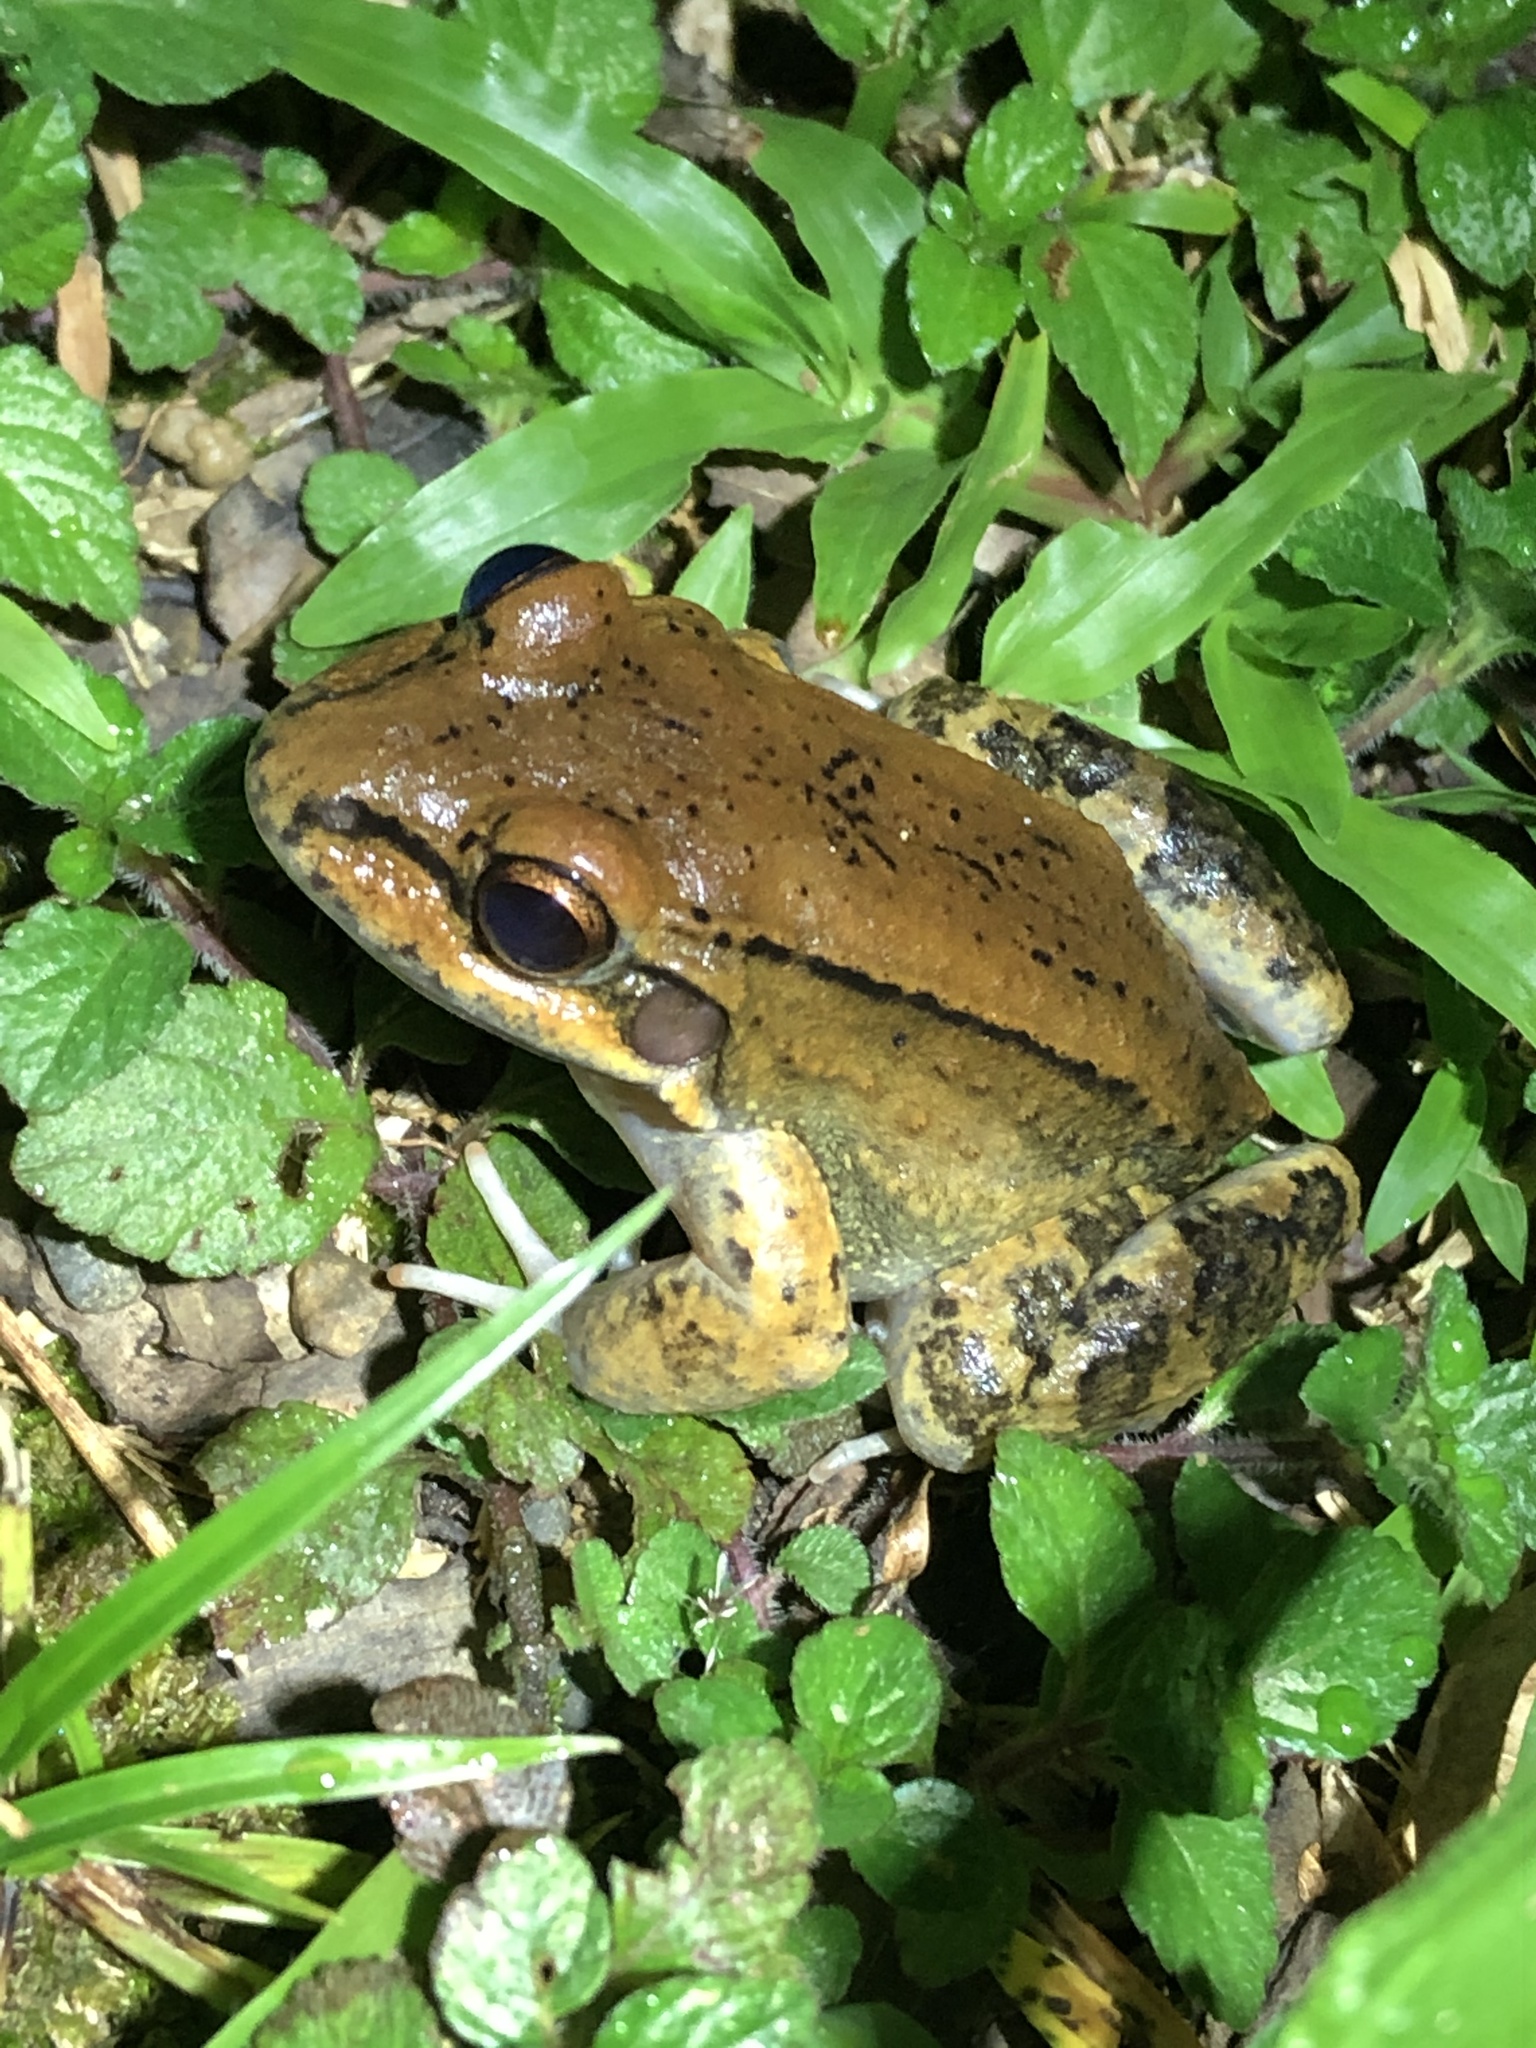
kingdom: Animalia
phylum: Chordata
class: Amphibia
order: Anura
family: Leptodactylidae
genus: Leptodactylus
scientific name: Leptodactylus rhodonotus
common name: Peru white-lipped frog
